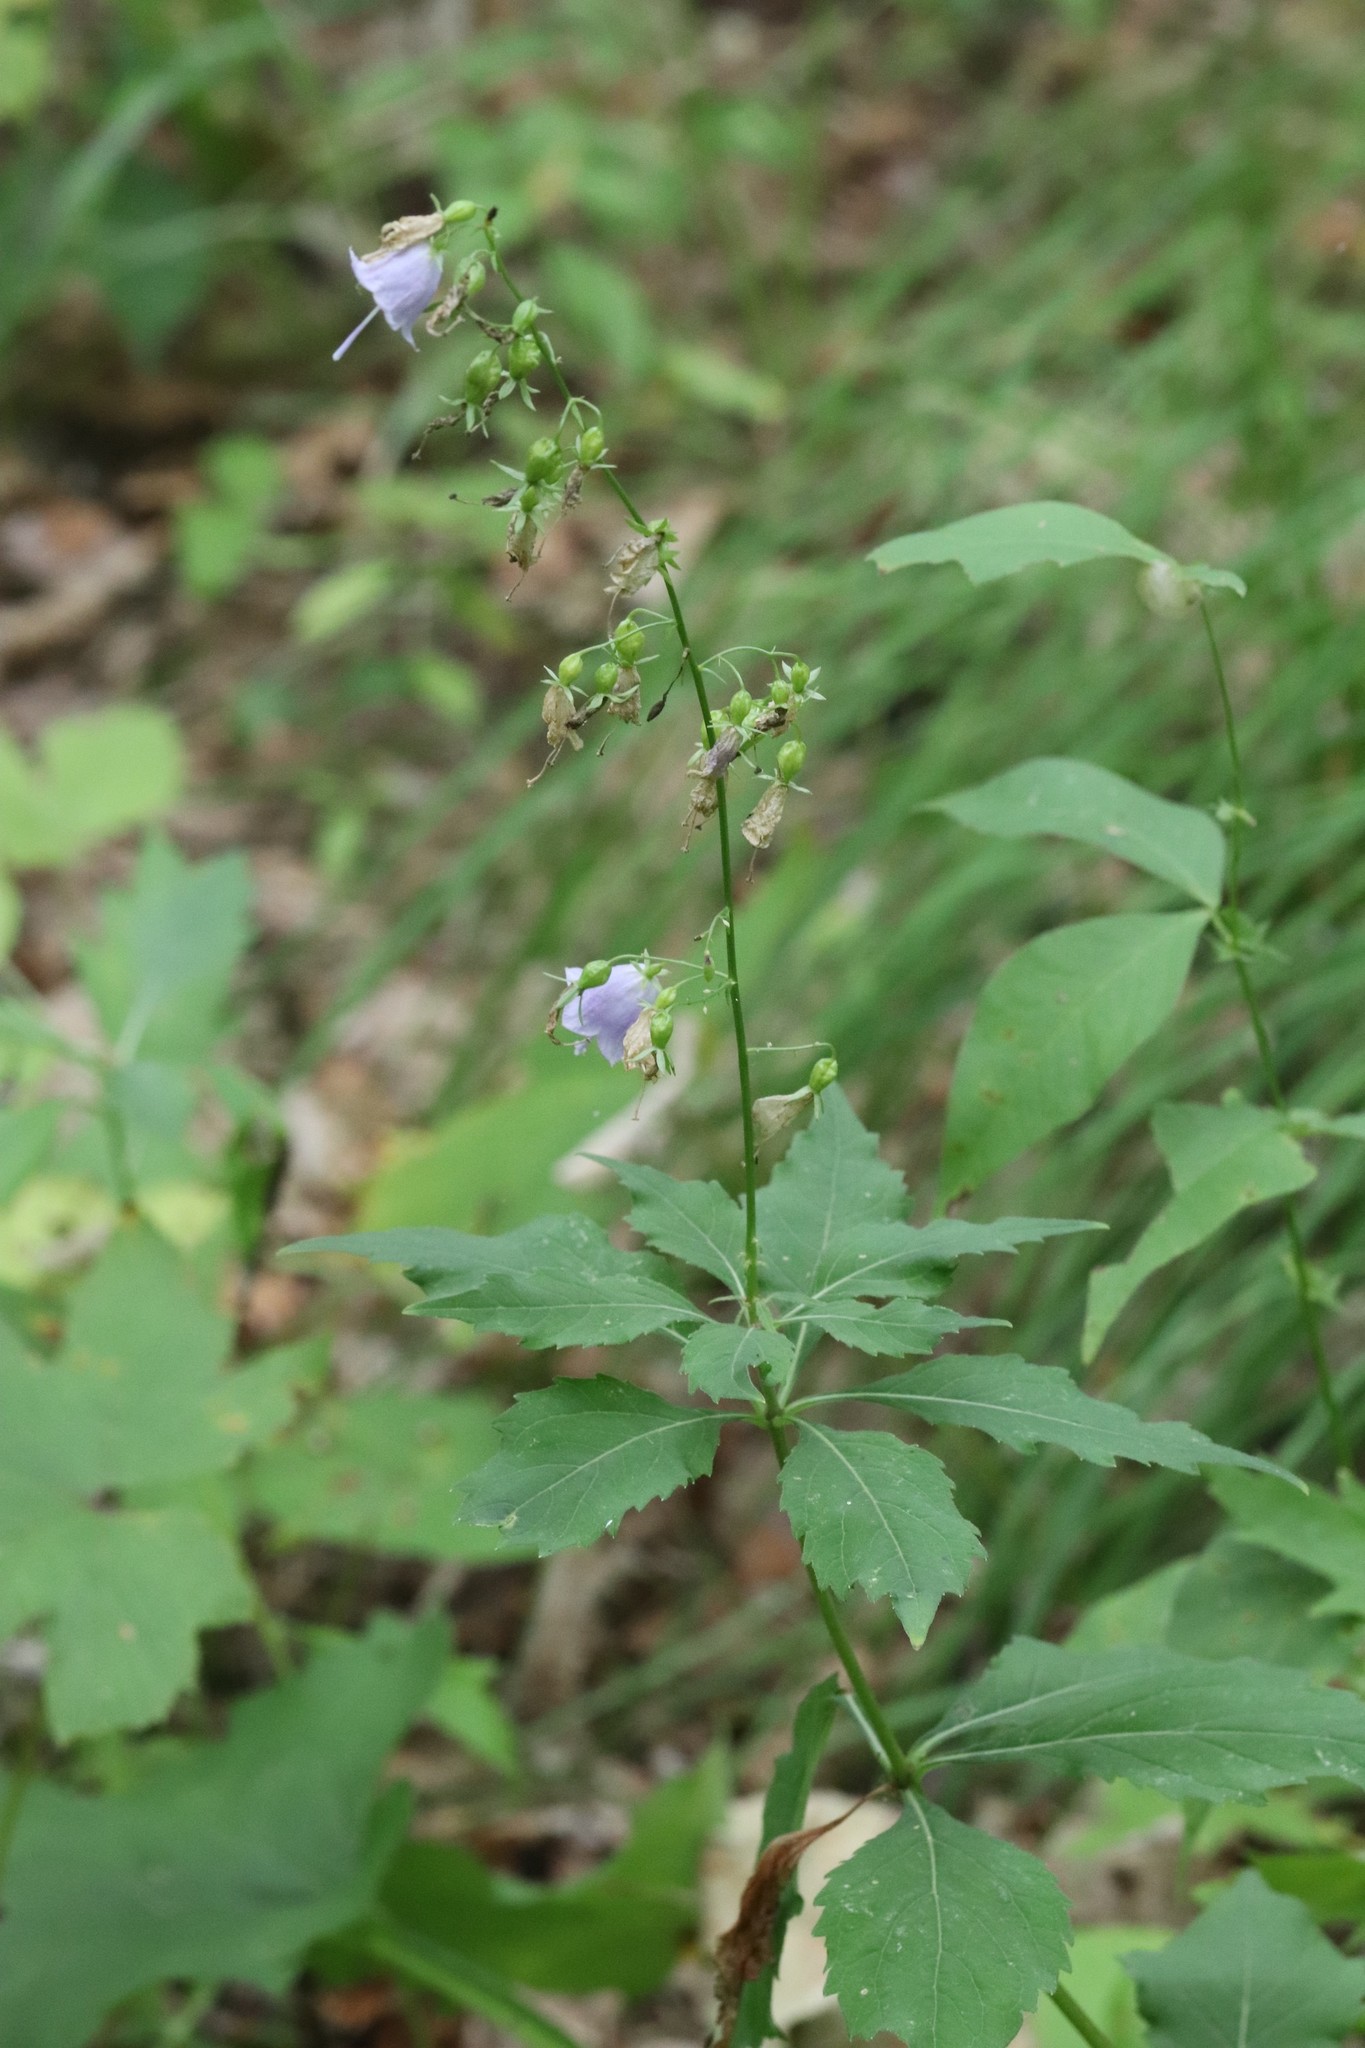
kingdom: Plantae
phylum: Tracheophyta
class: Magnoliopsida
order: Asterales
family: Campanulaceae
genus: Adenophora
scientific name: Adenophora pereskiifolia
